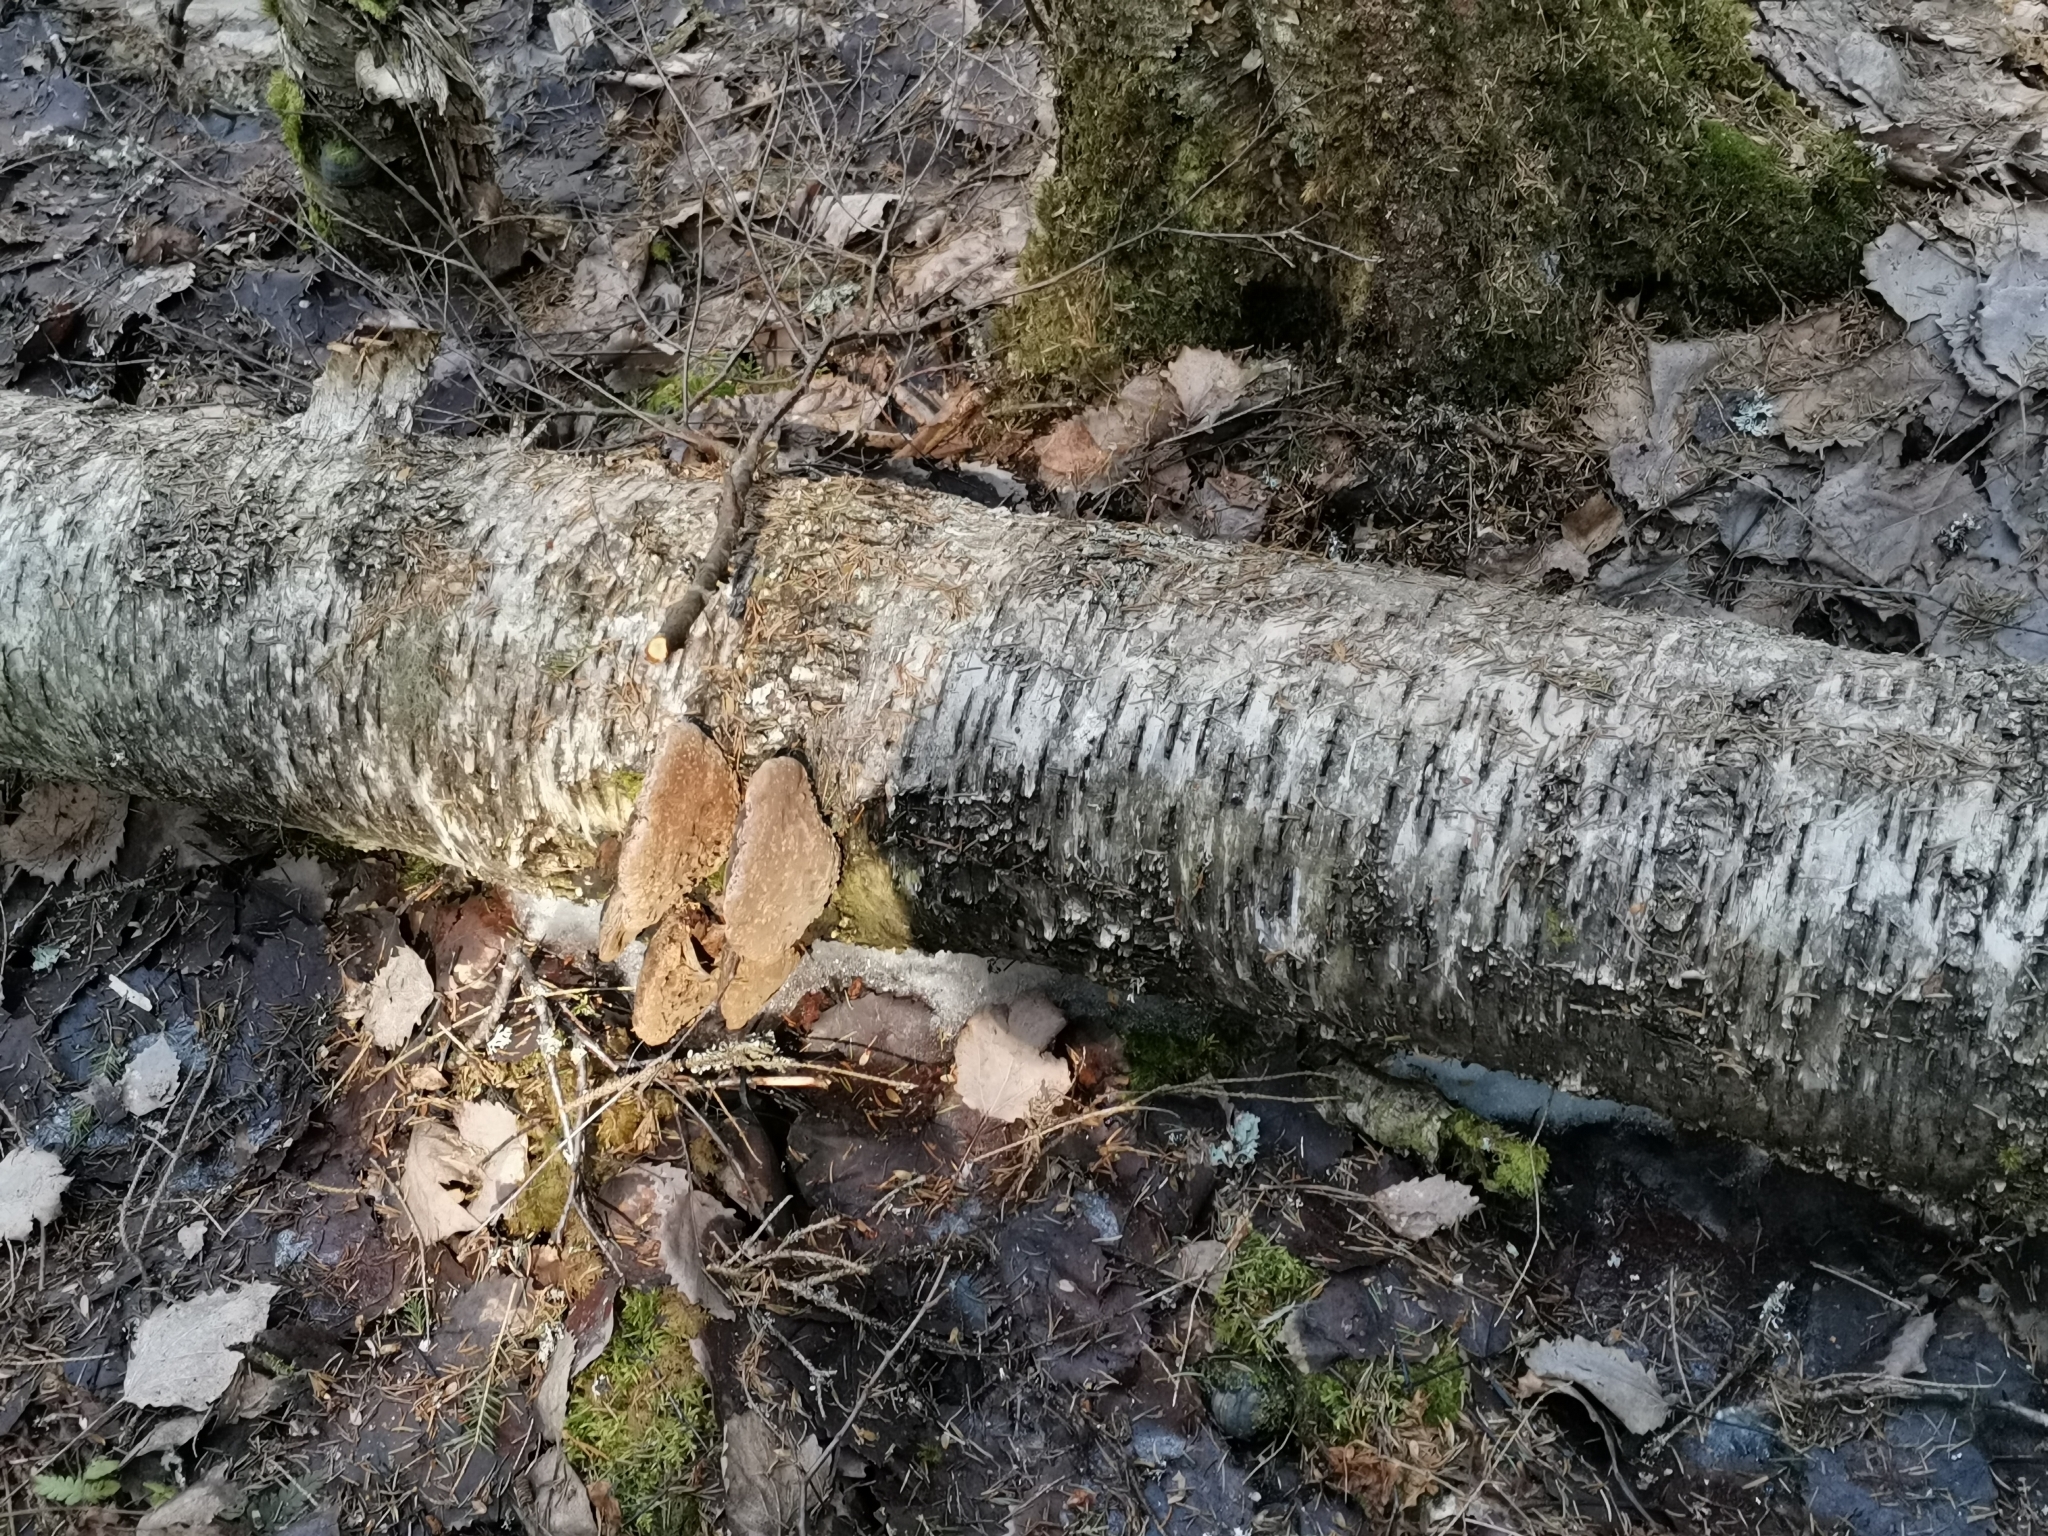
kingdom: Fungi
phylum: Basidiomycota
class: Agaricomycetes
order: Hymenochaetales
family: Hymenochaetaceae
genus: Phellinus
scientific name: Phellinus igniarius
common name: Willow bracket
